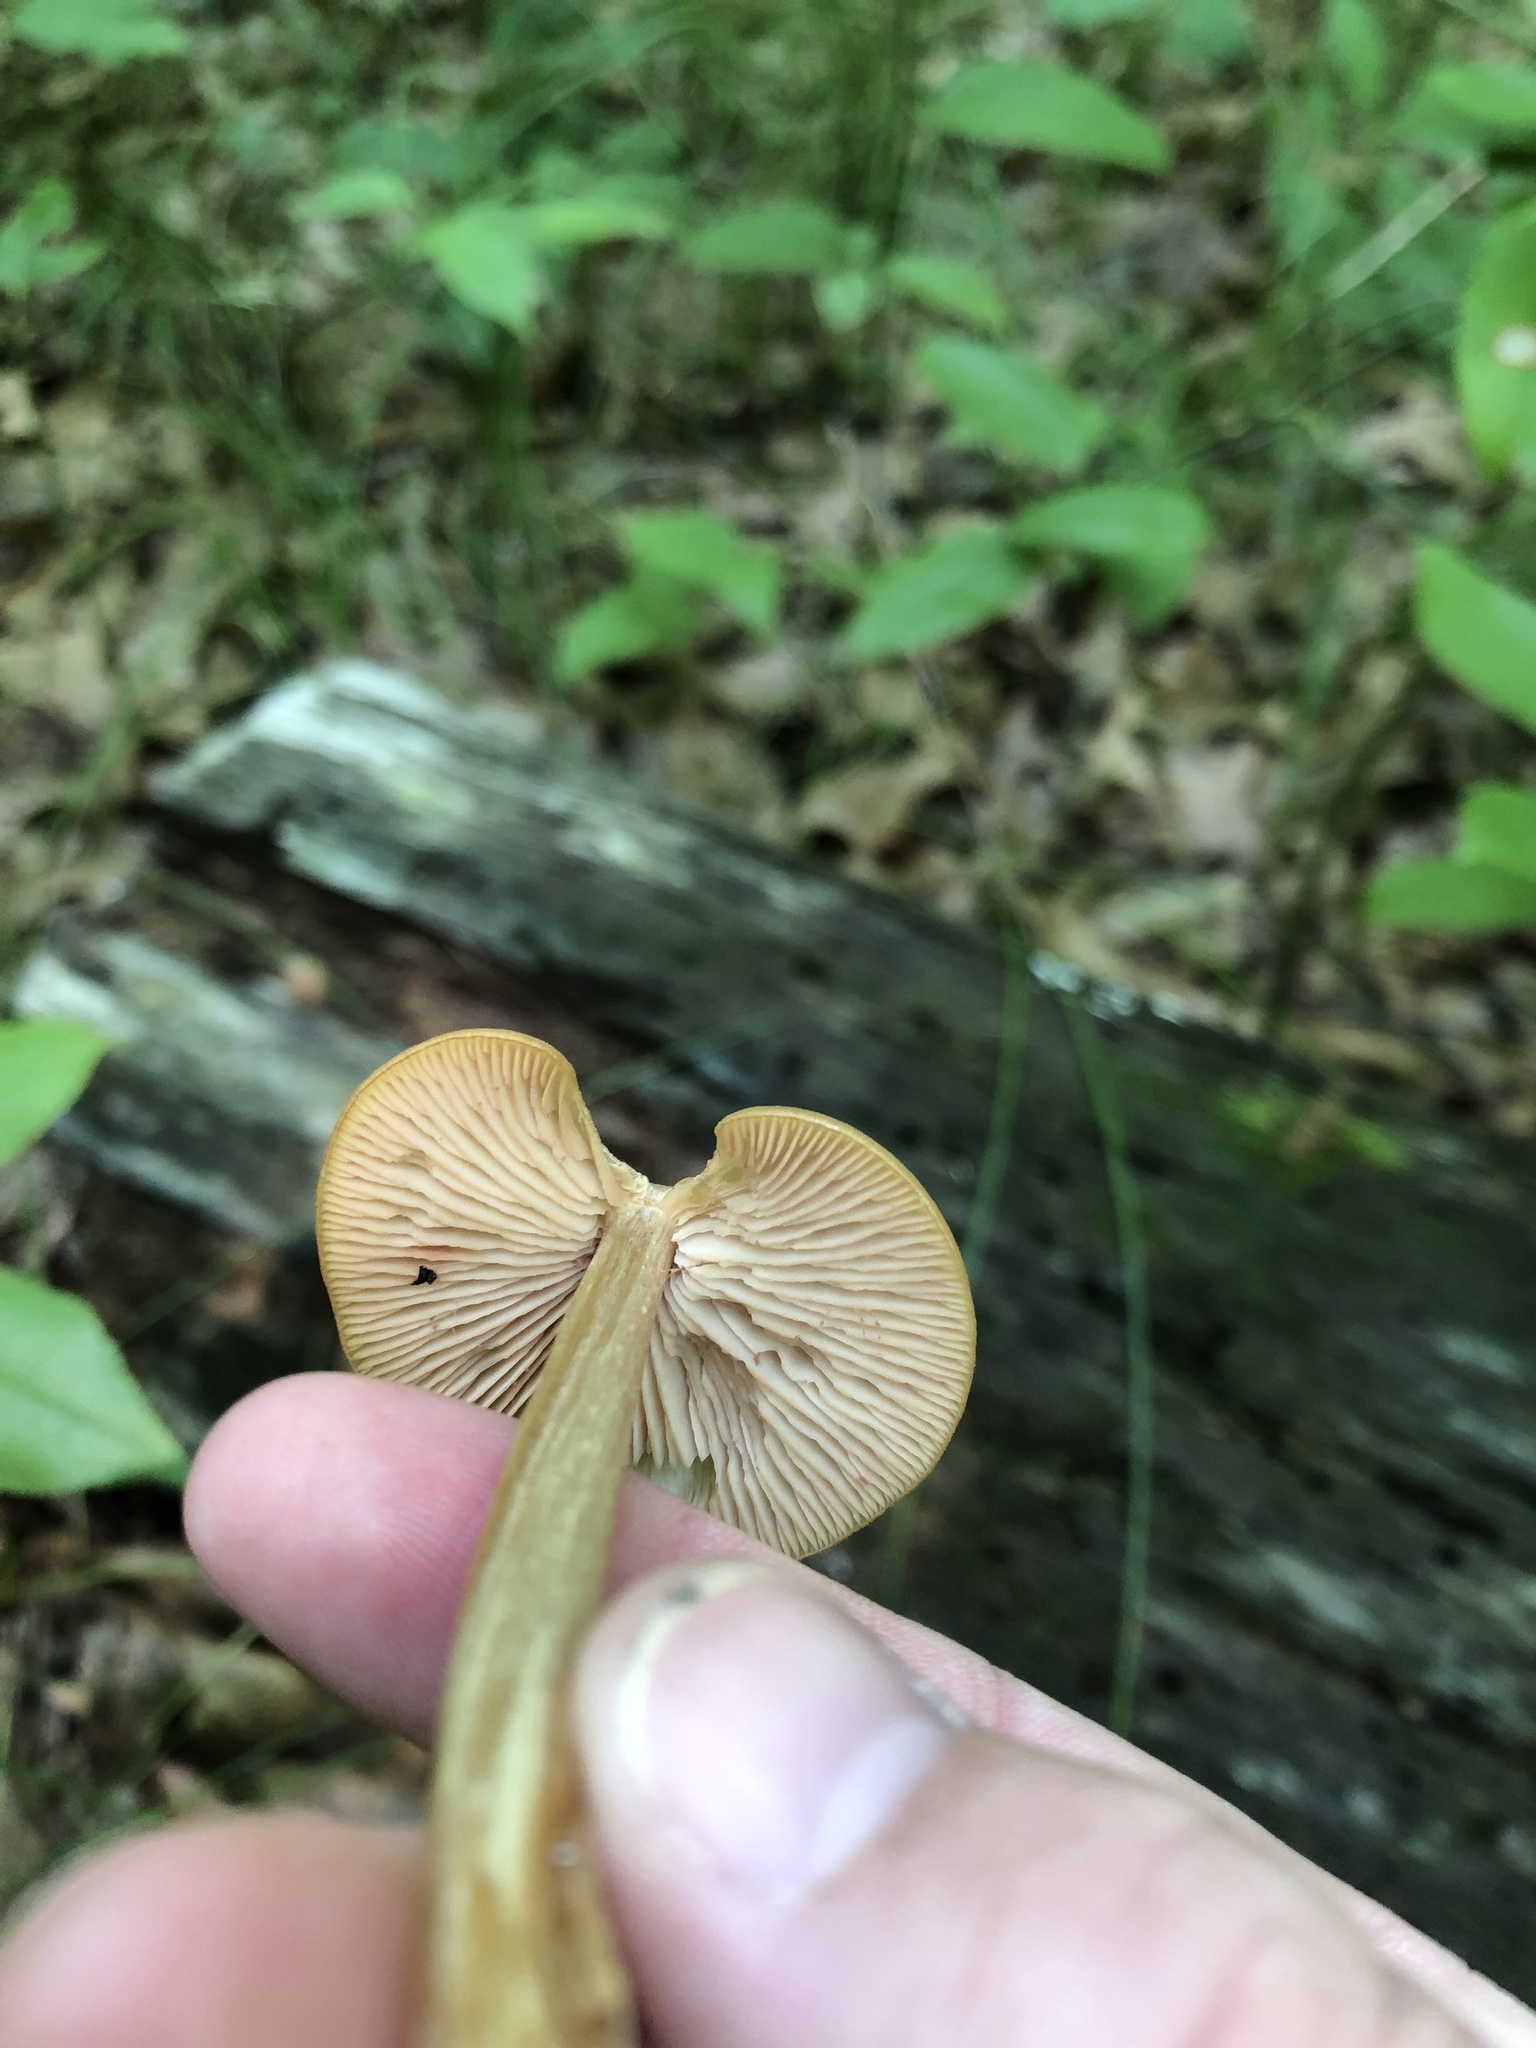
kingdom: Fungi
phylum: Basidiomycota
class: Agaricomycetes
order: Agaricales
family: Entolomataceae
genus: Entoloma
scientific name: Entoloma strictius
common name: Straight-stalked entoloma
